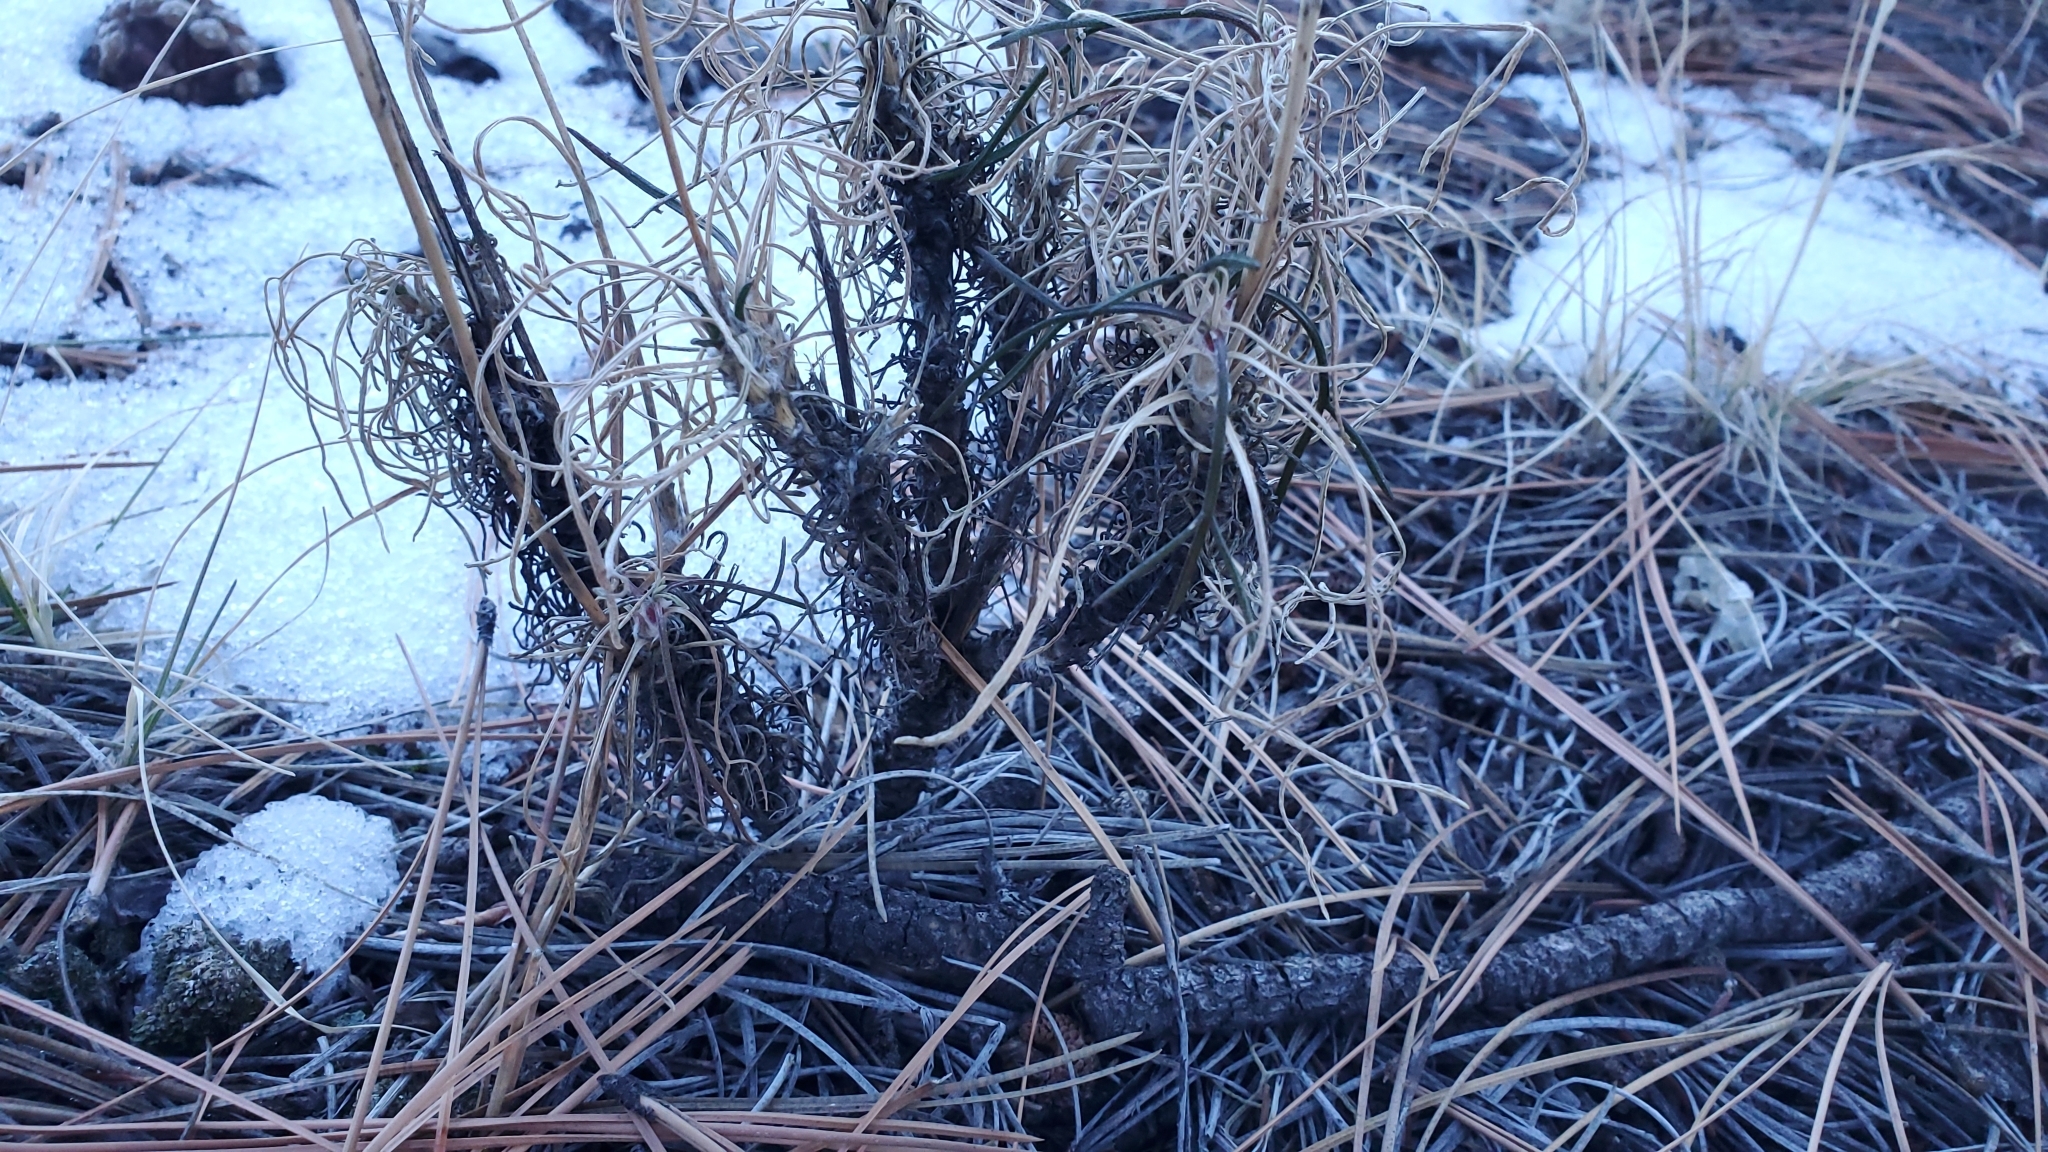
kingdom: Plantae
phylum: Tracheophyta
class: Magnoliopsida
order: Asterales
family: Asteraceae
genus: Hymenoxys
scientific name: Hymenoxys richardsonii
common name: Pingue rubberweed
